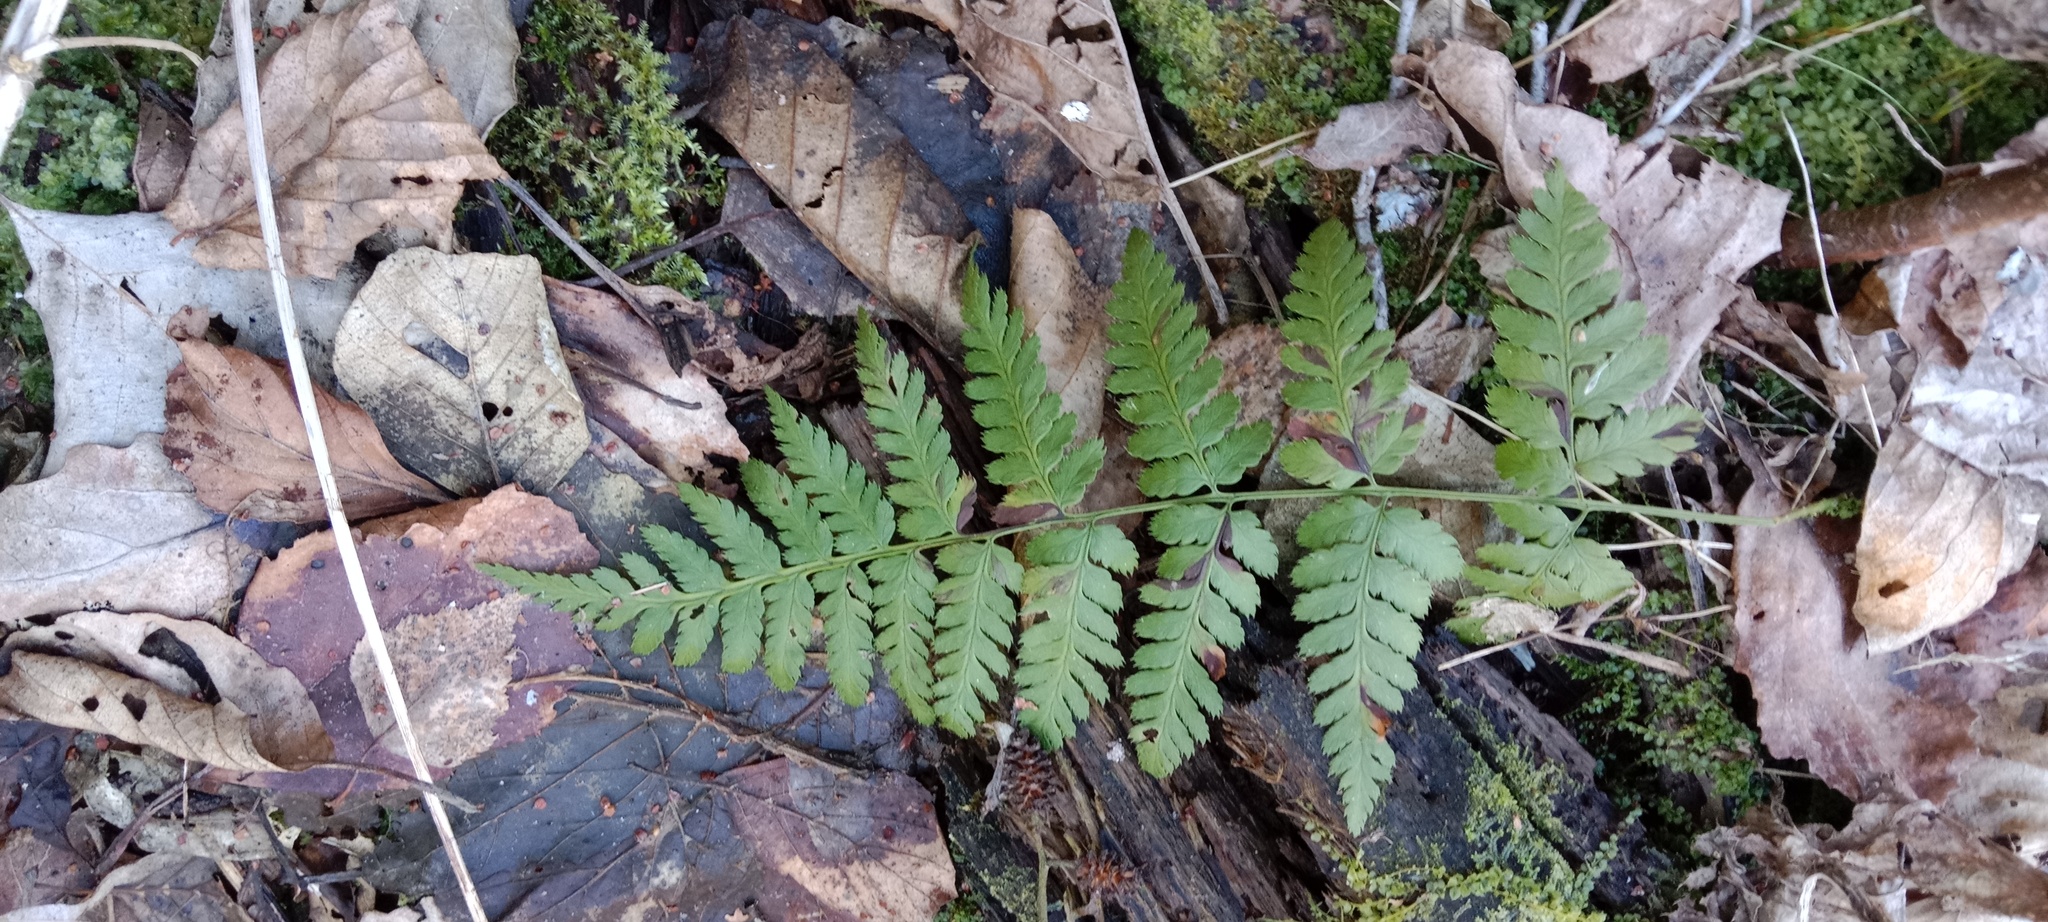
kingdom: Plantae
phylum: Tracheophyta
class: Polypodiopsida
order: Polypodiales
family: Dryopteridaceae
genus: Dryopteris
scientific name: Dryopteris carthusiana
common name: Narrow buckler-fern
